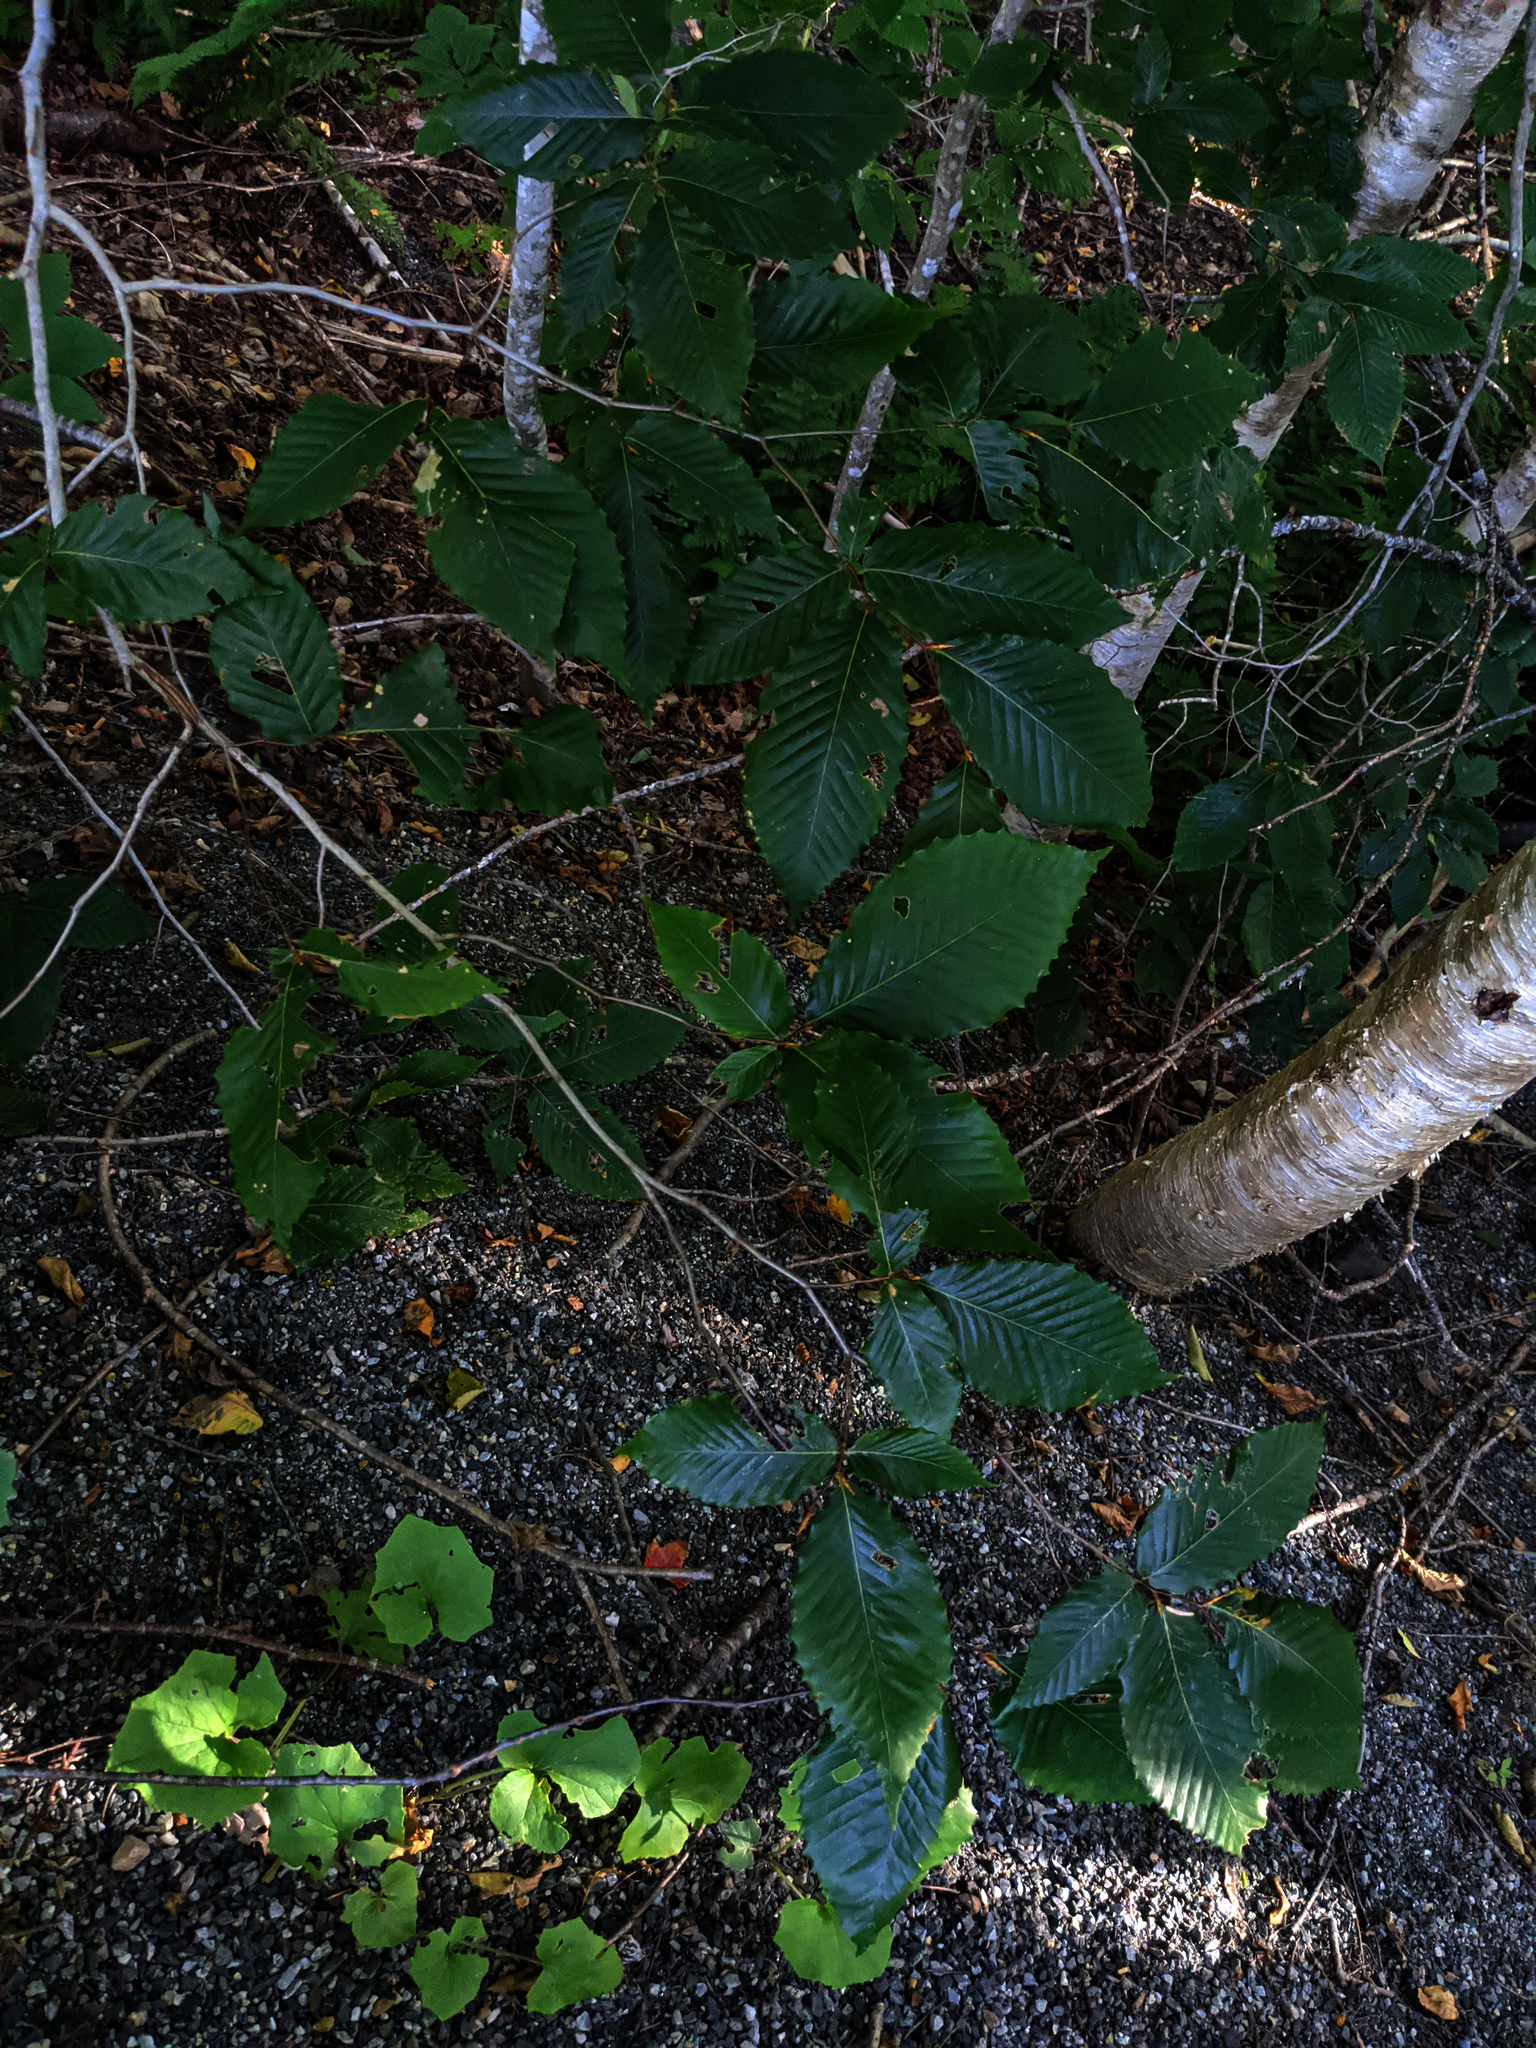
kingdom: Plantae
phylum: Tracheophyta
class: Magnoliopsida
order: Fagales
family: Fagaceae
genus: Fagus
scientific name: Fagus grandifolia
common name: American beech
